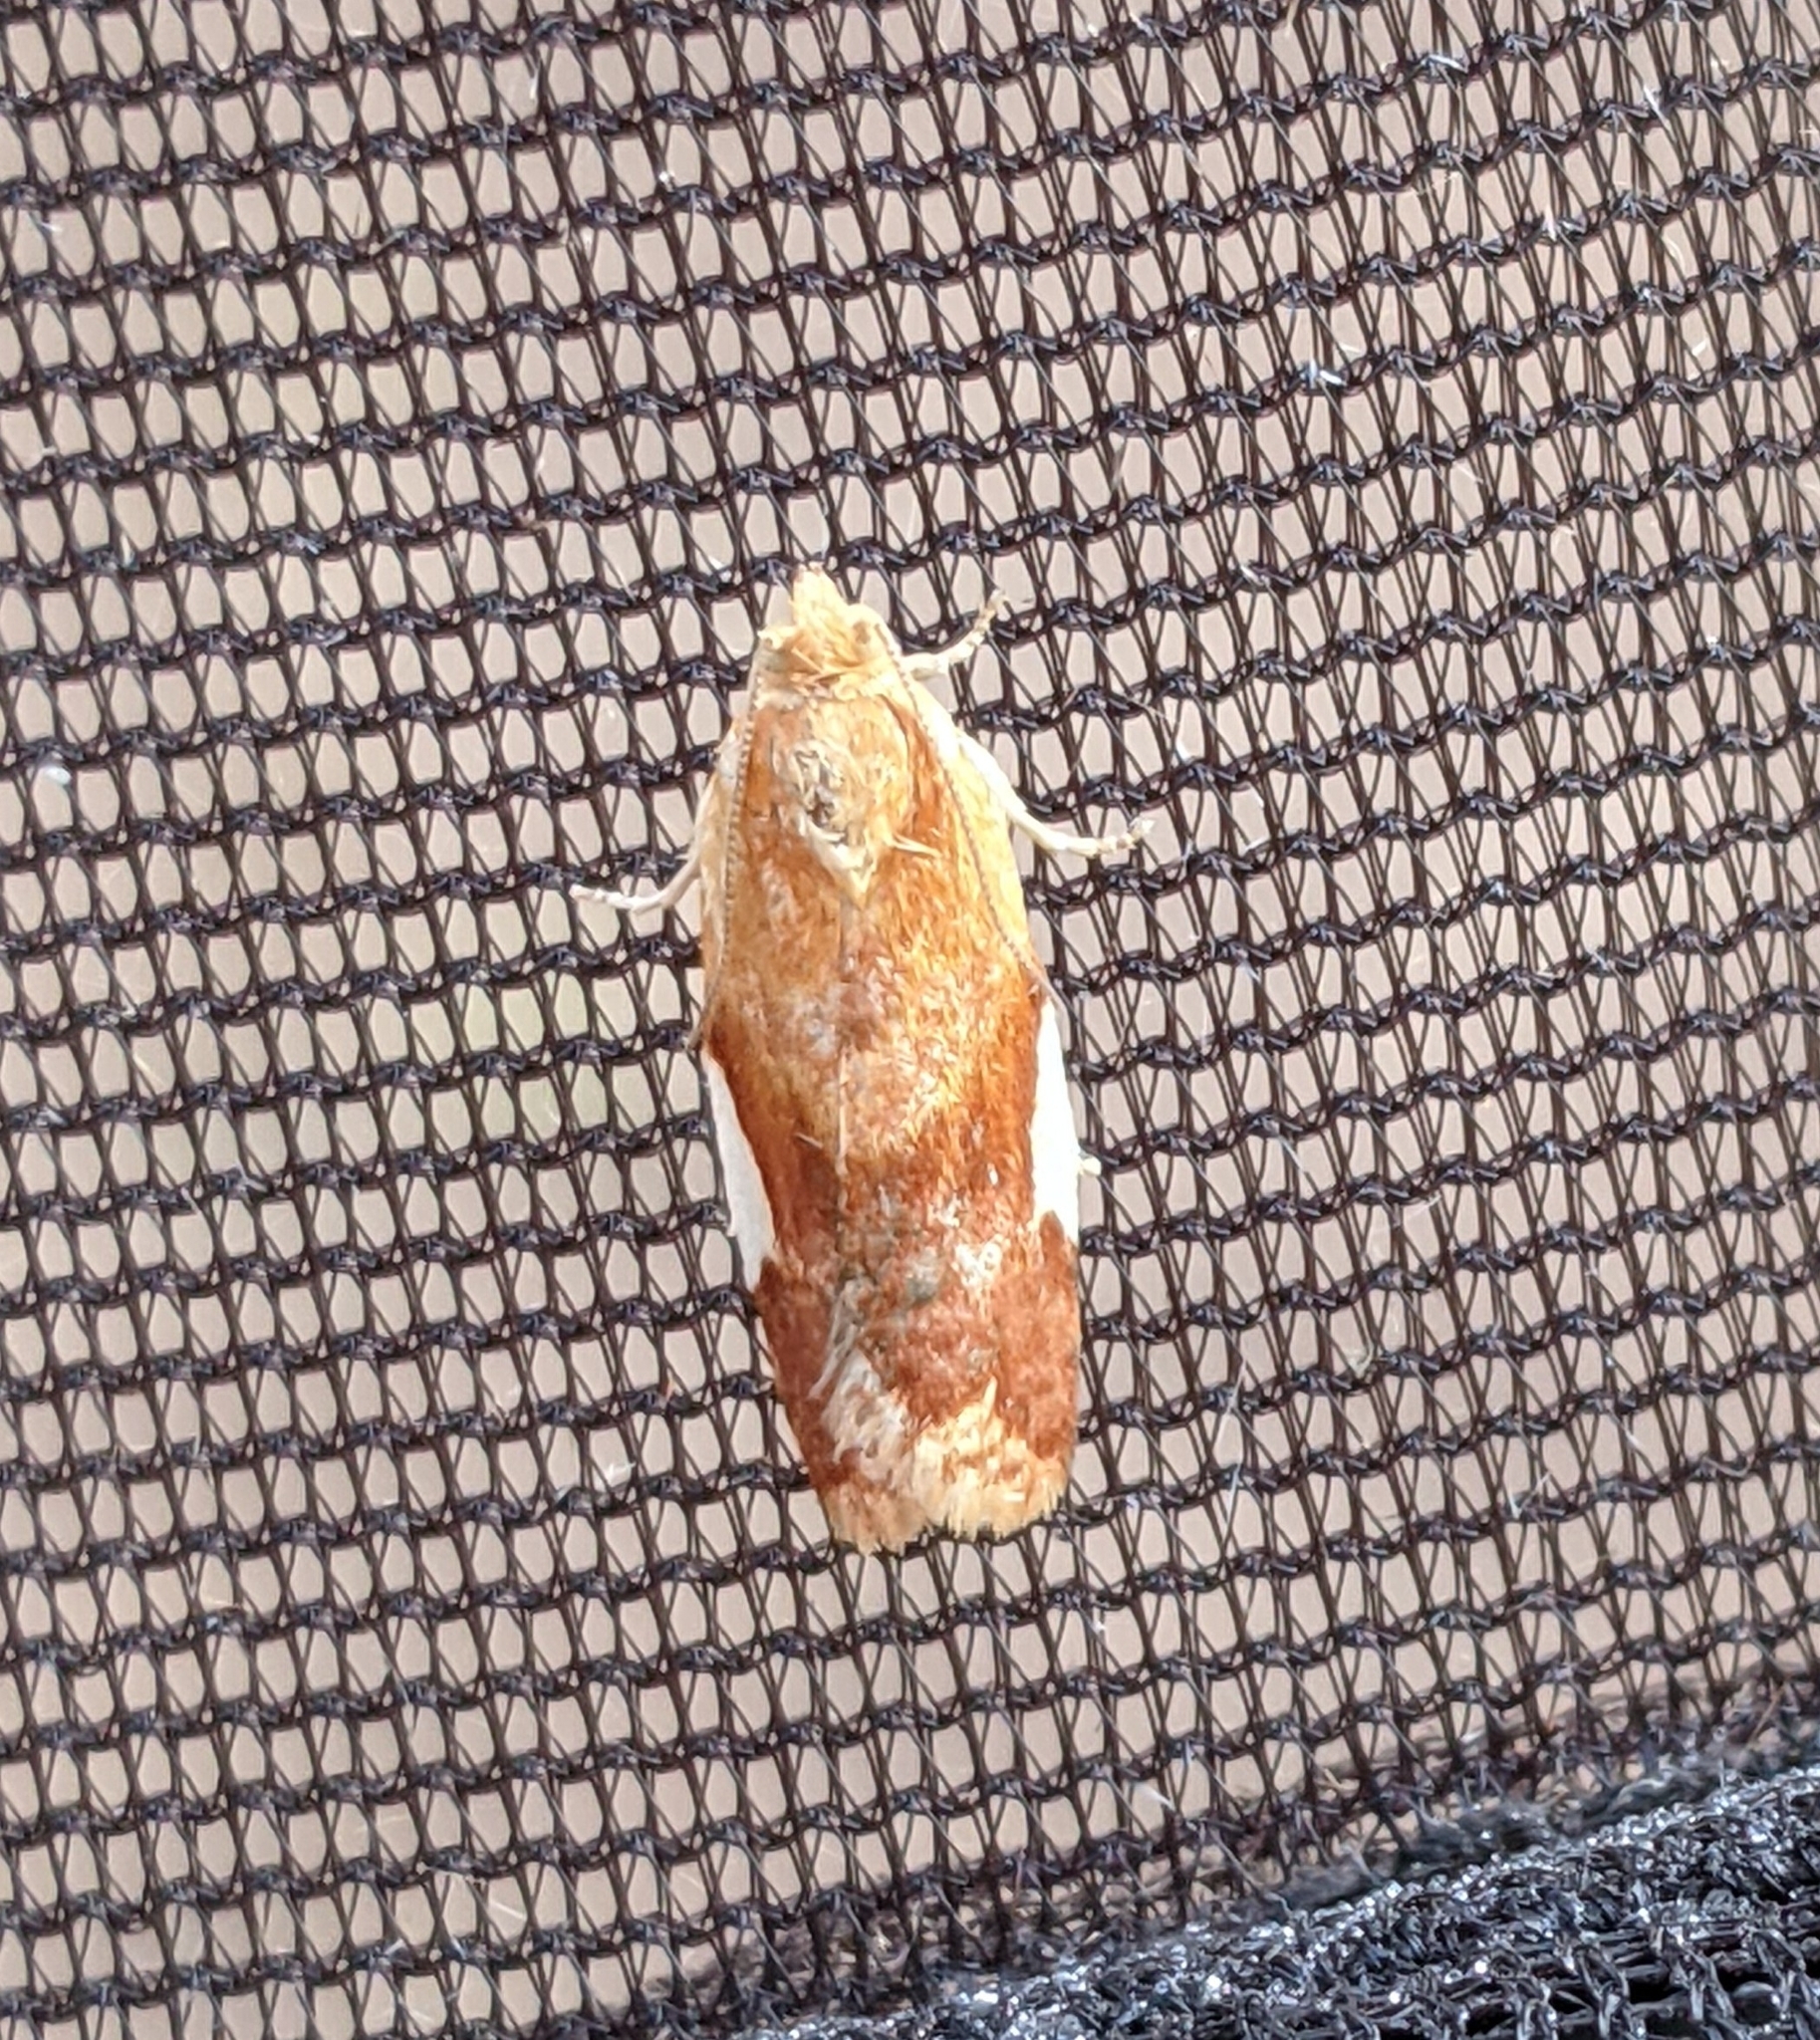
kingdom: Animalia
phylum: Arthropoda
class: Insecta
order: Lepidoptera
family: Tortricidae
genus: Clepsis
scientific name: Clepsis persicana
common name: White triangle tortrix
